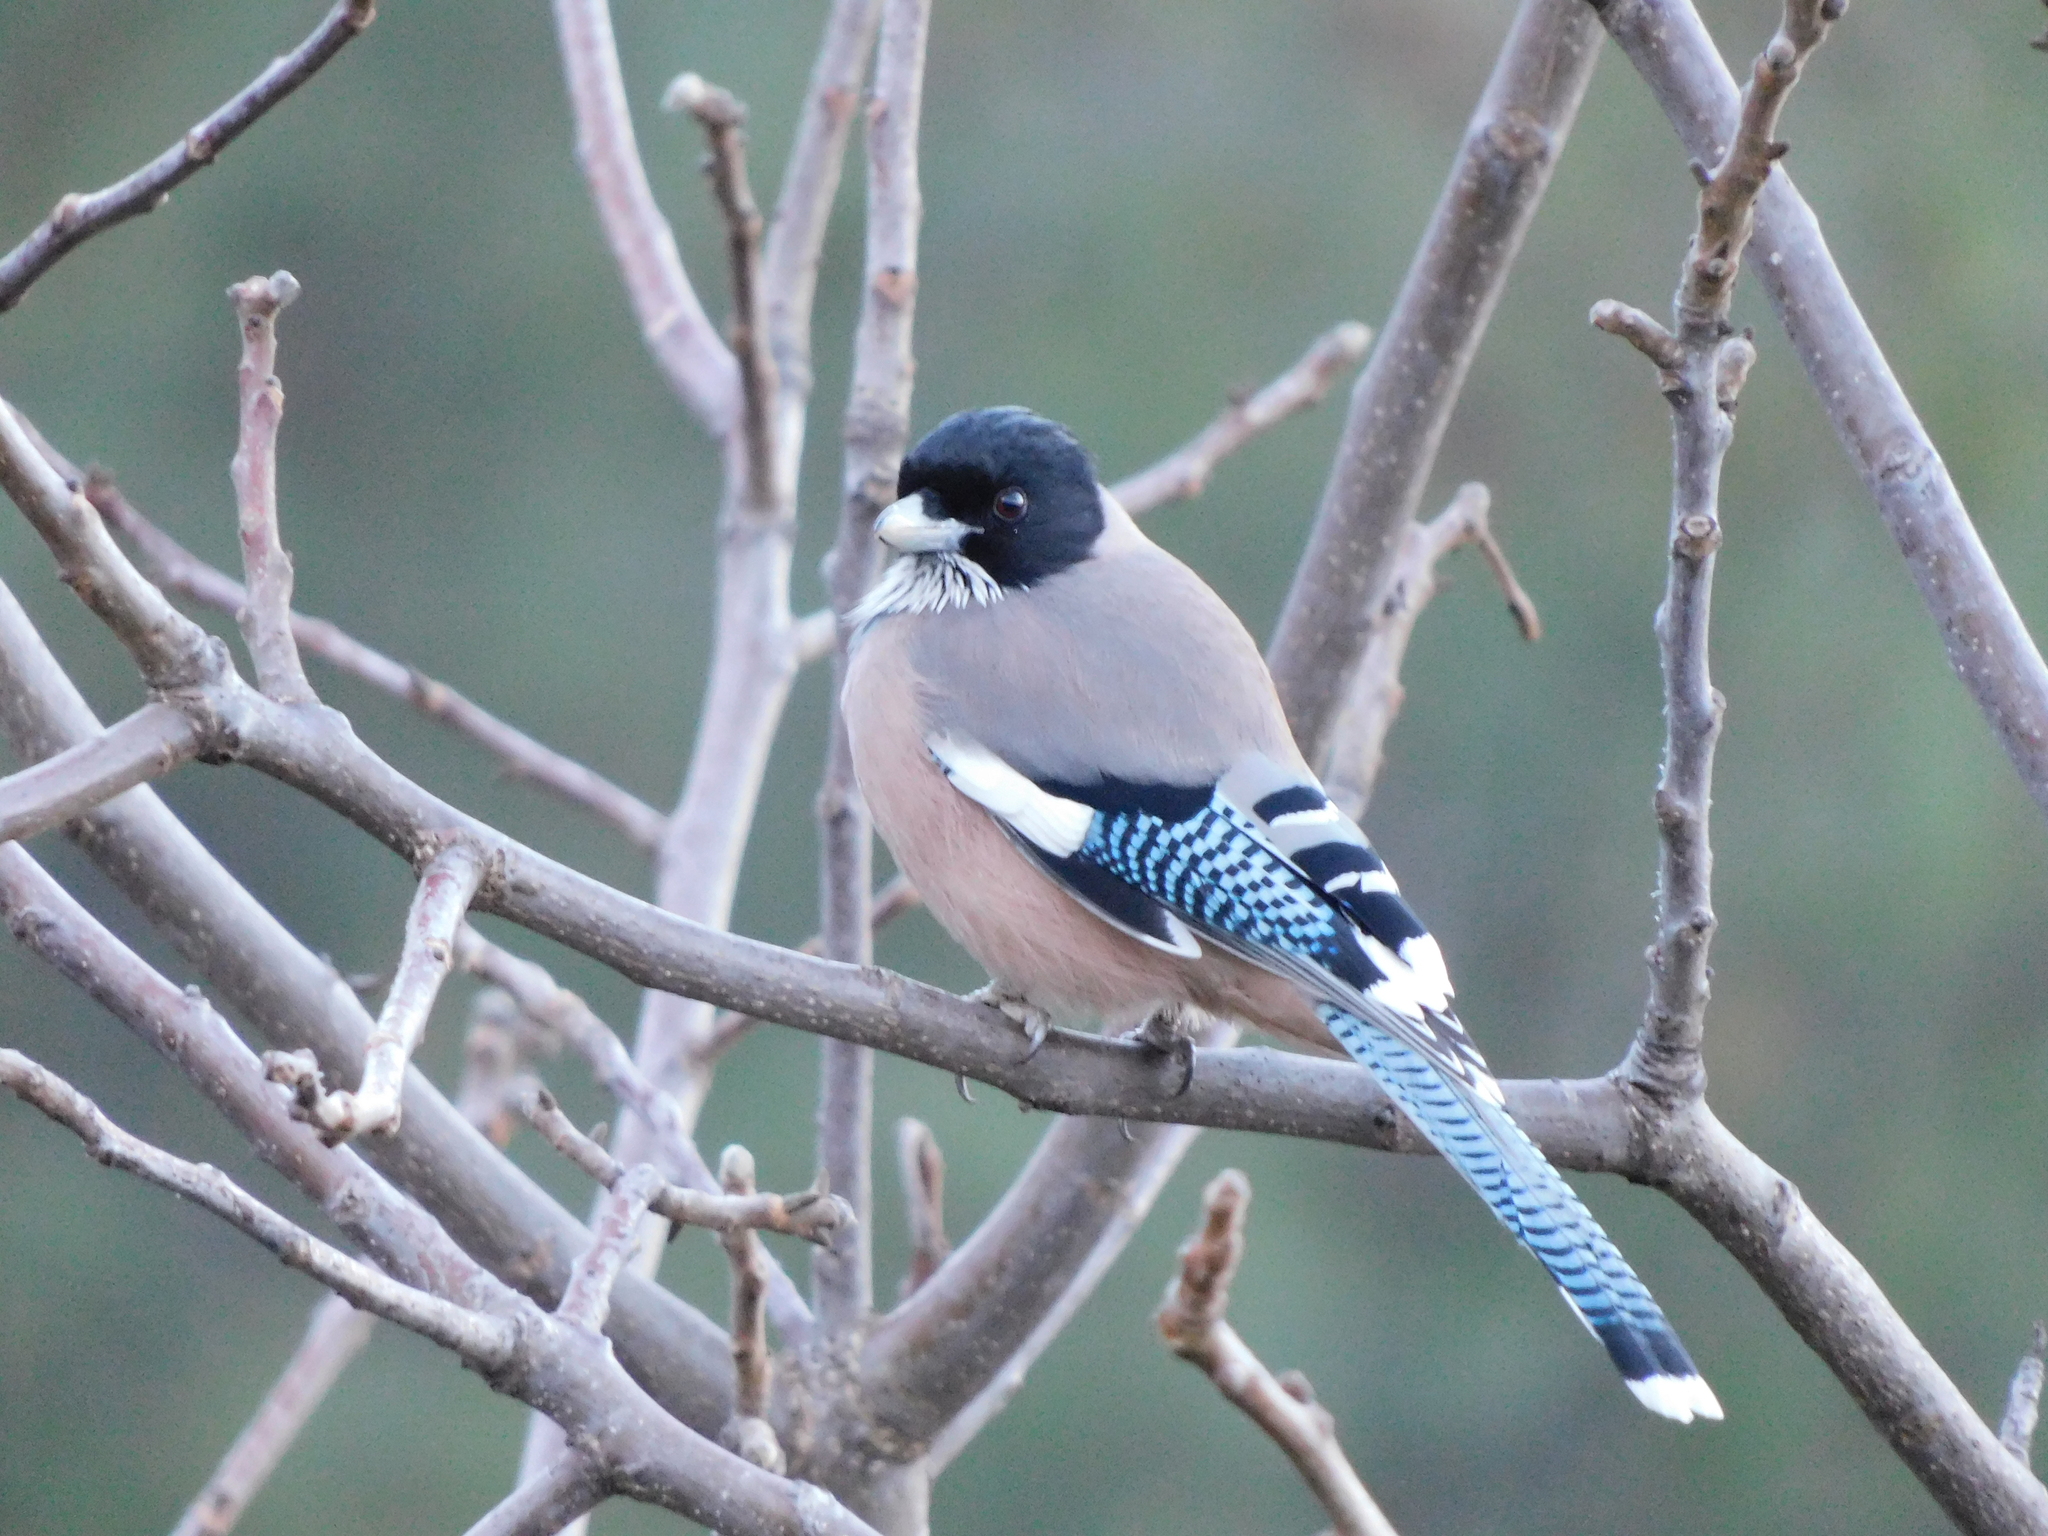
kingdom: Animalia
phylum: Chordata
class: Aves
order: Passeriformes
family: Corvidae
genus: Garrulus
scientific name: Garrulus lanceolatus
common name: Black-headed jay
